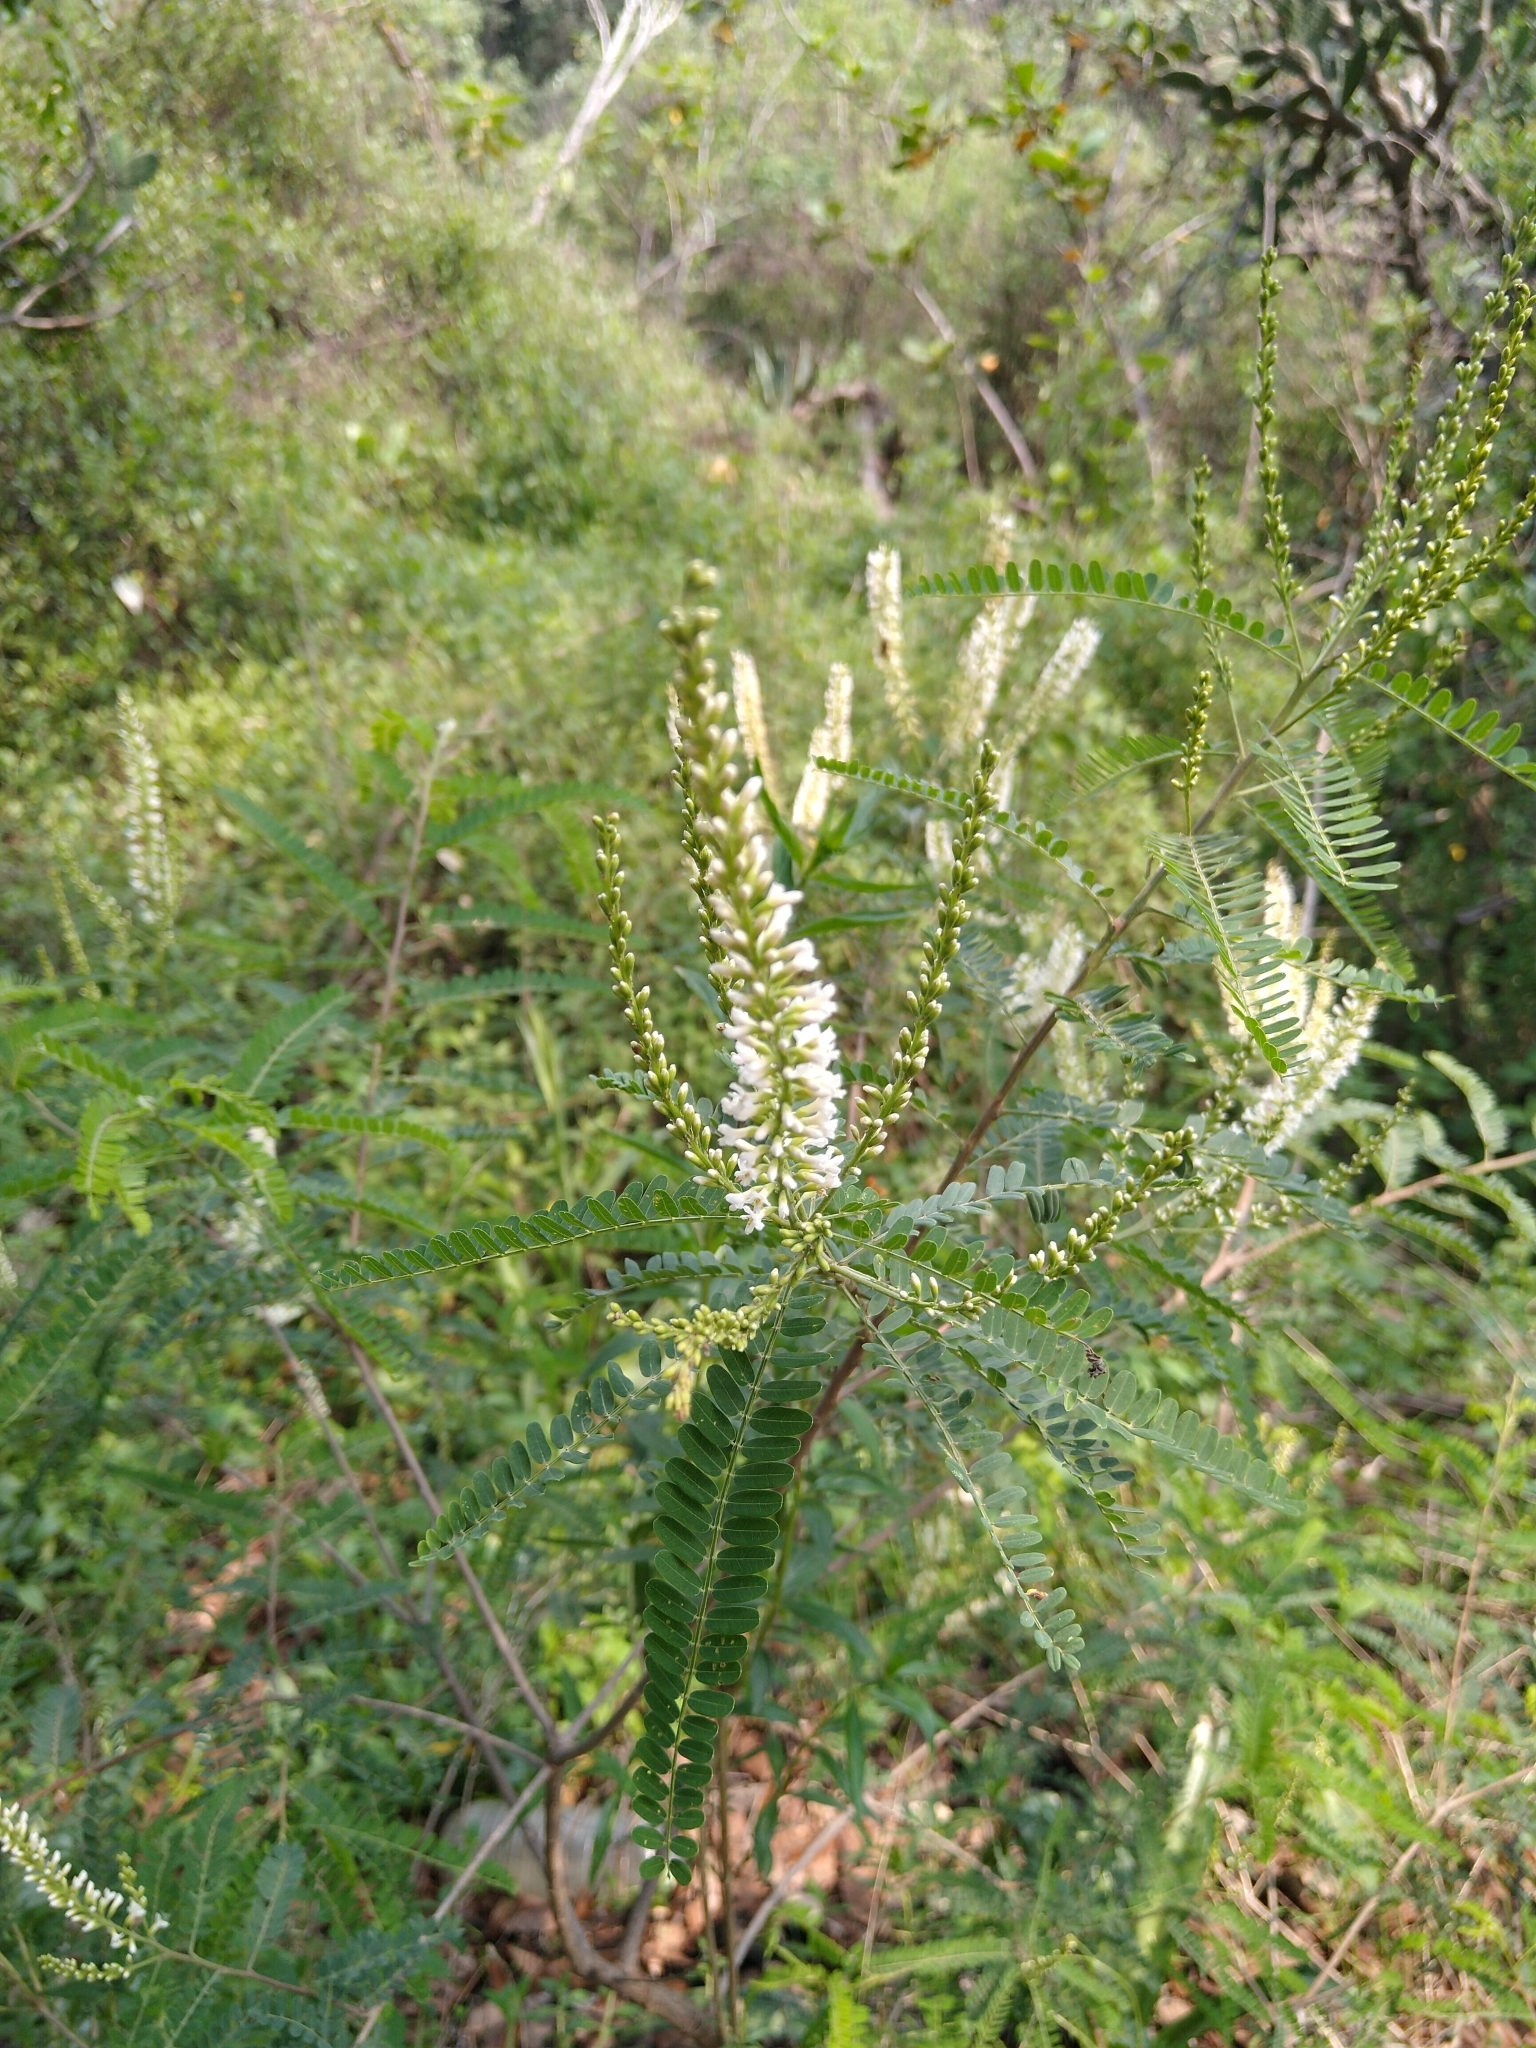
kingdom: Plantae
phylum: Tracheophyta
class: Magnoliopsida
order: Fabales
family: Fabaceae
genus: Eysenhardtia
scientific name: Eysenhardtia polystachya
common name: Kidneywood
